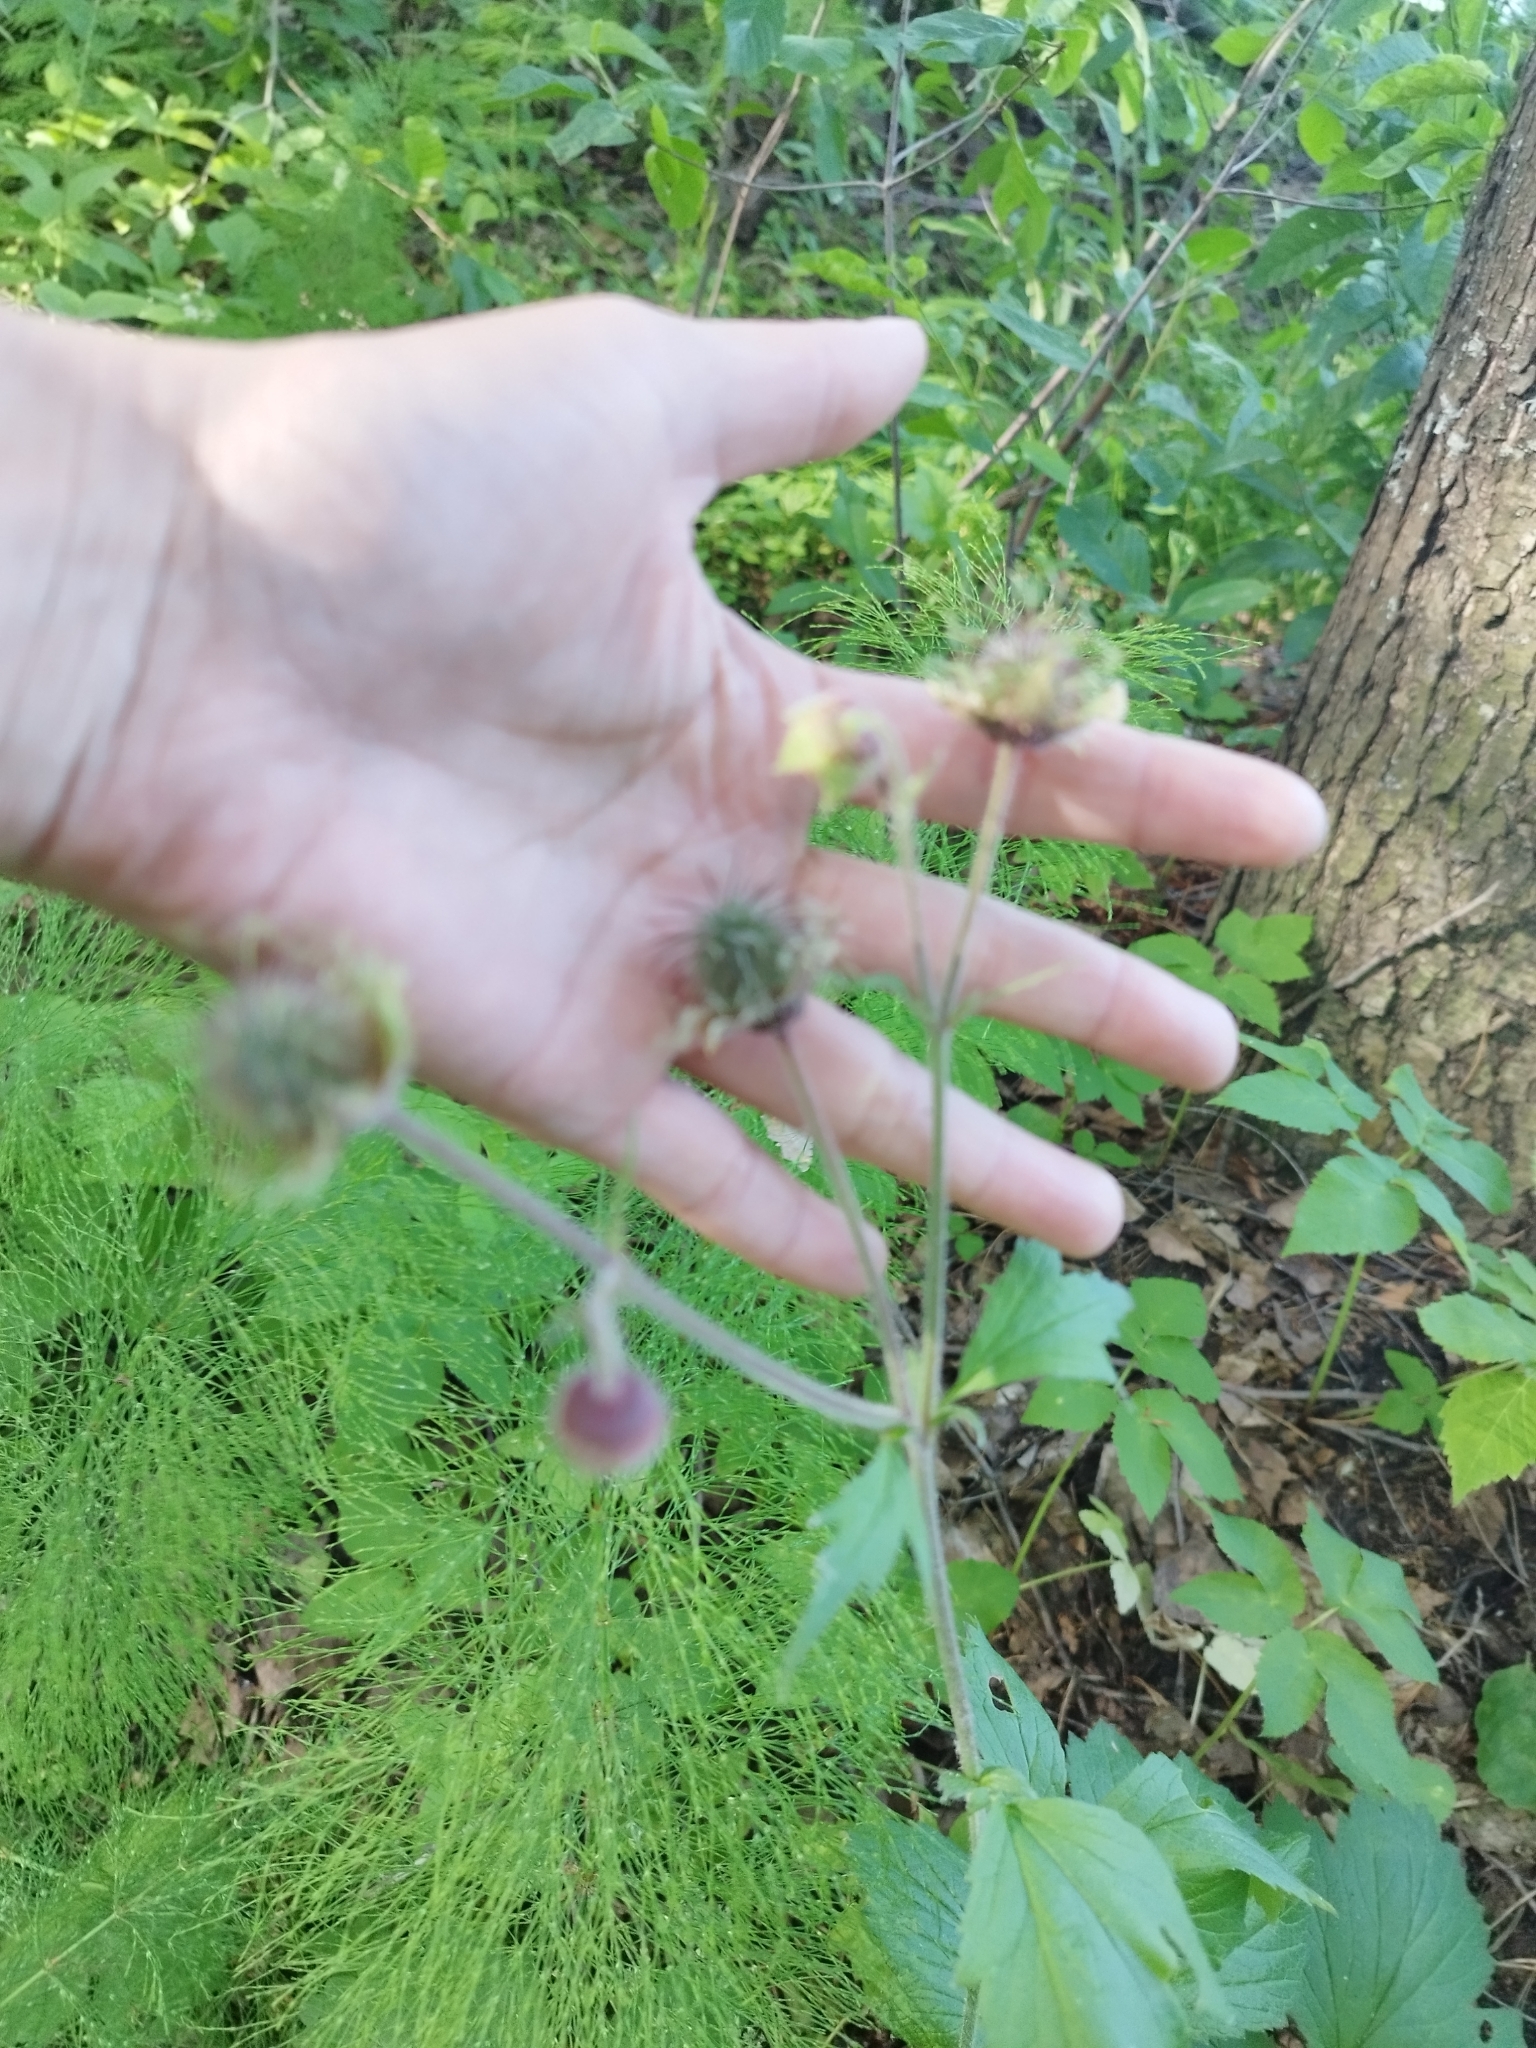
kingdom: Plantae
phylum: Tracheophyta
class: Magnoliopsida
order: Rosales
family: Rosaceae
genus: Geum
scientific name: Geum rivale
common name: Water avens
